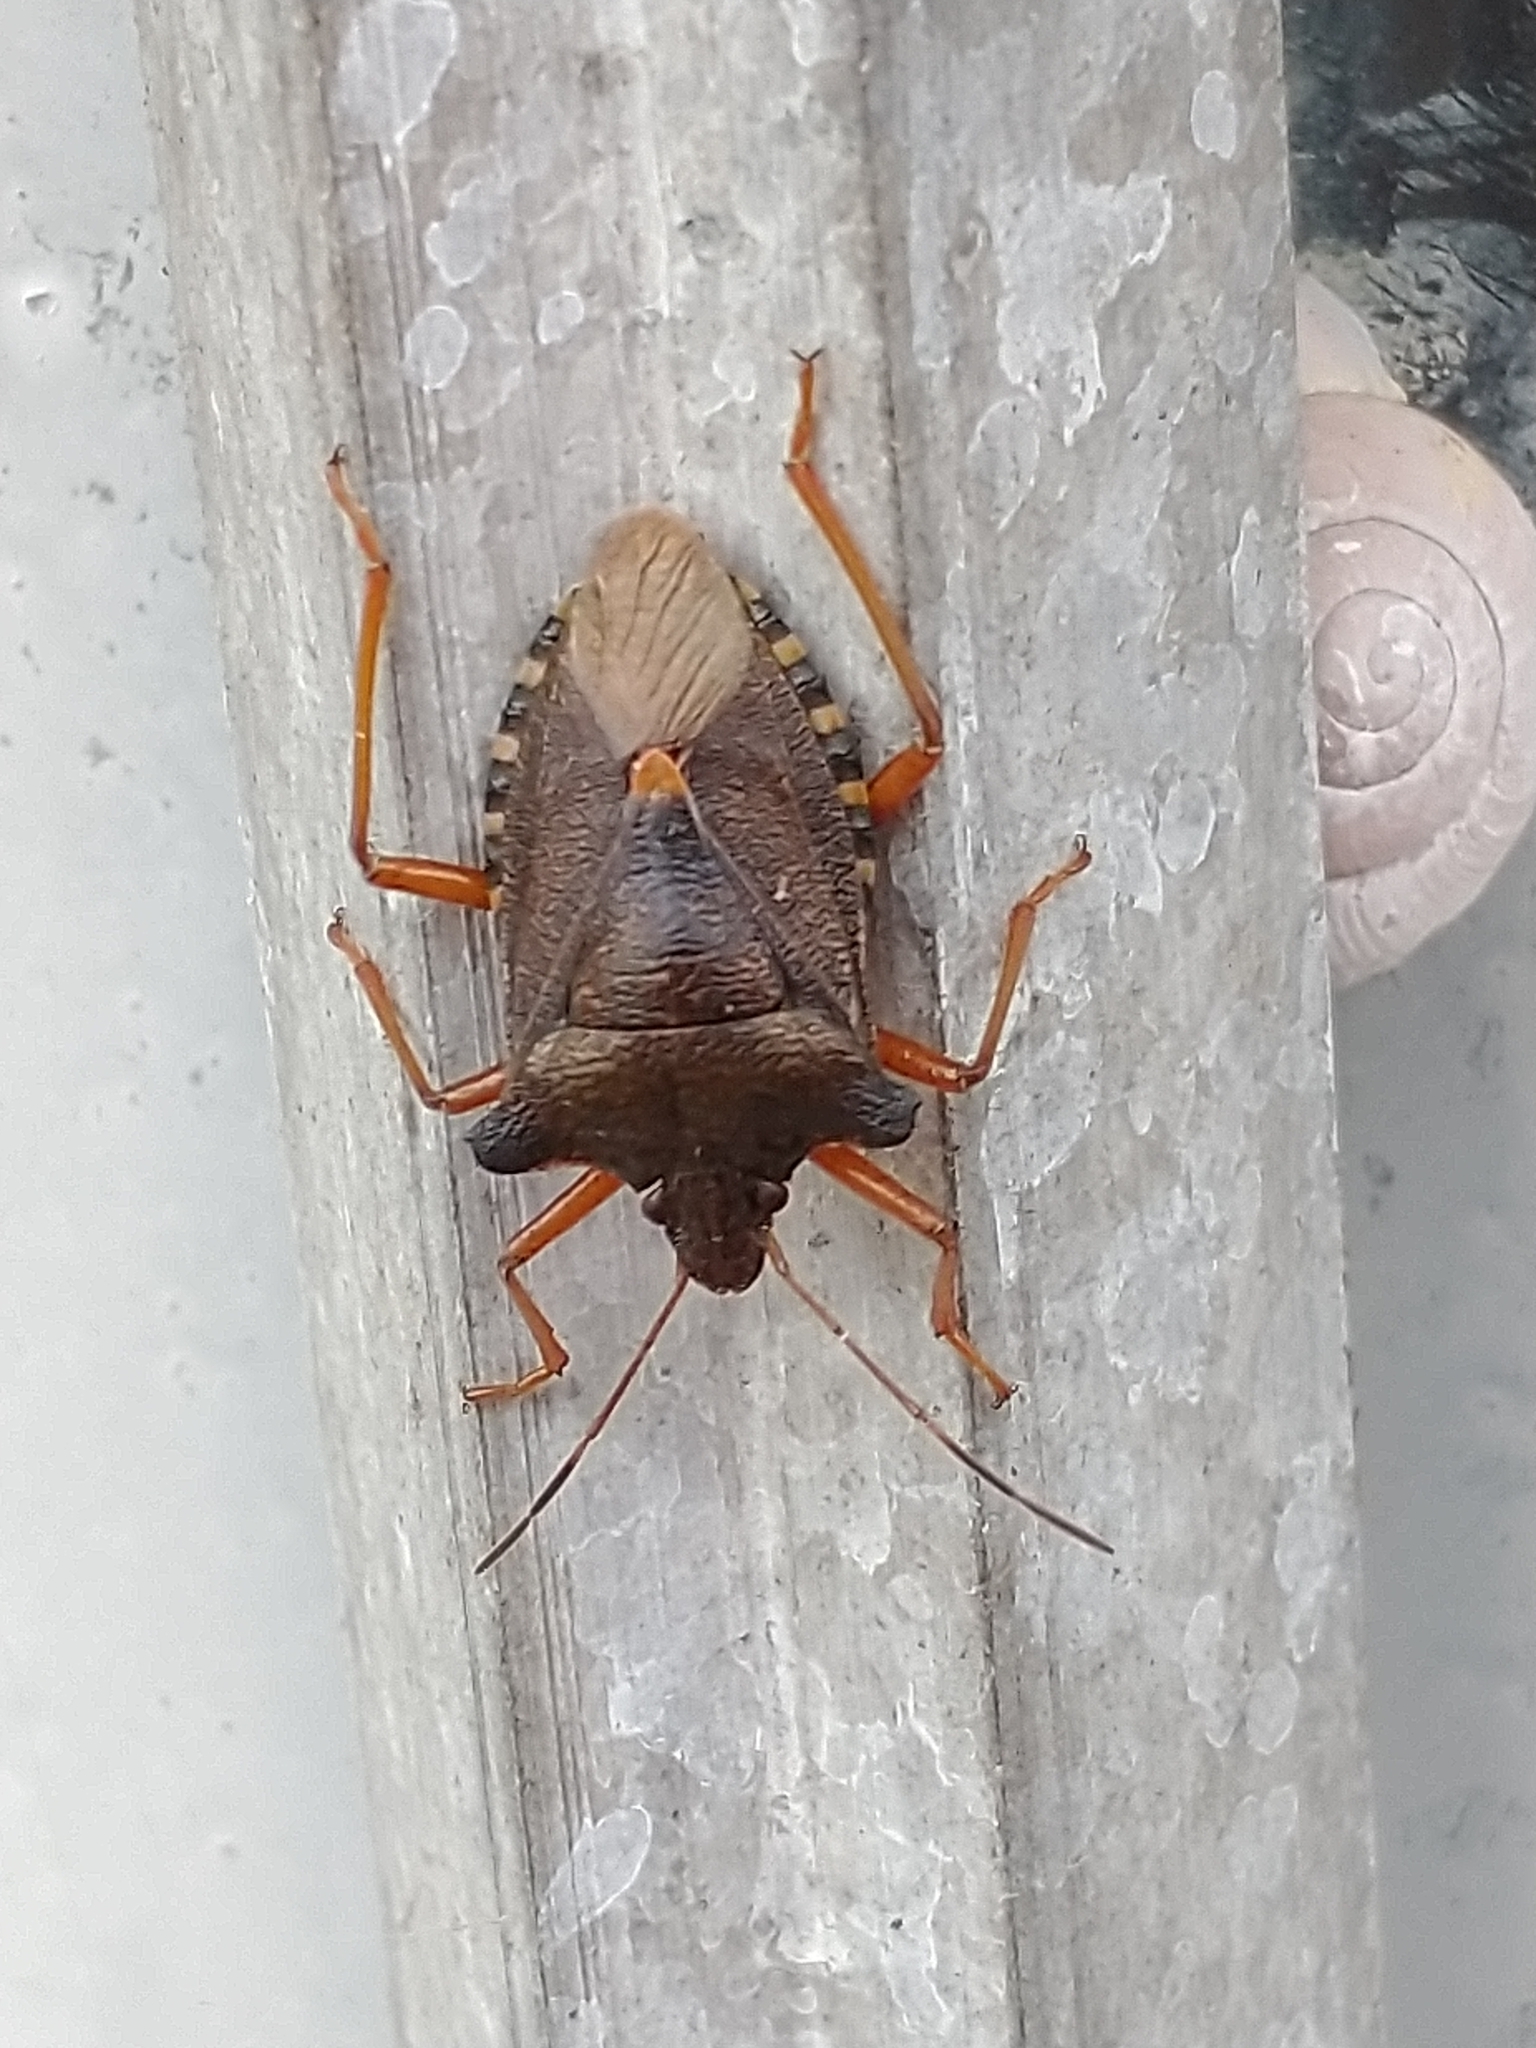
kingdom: Animalia
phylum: Arthropoda
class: Insecta
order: Hemiptera
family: Pentatomidae
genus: Pentatoma
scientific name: Pentatoma rufipes
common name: Forest bug
